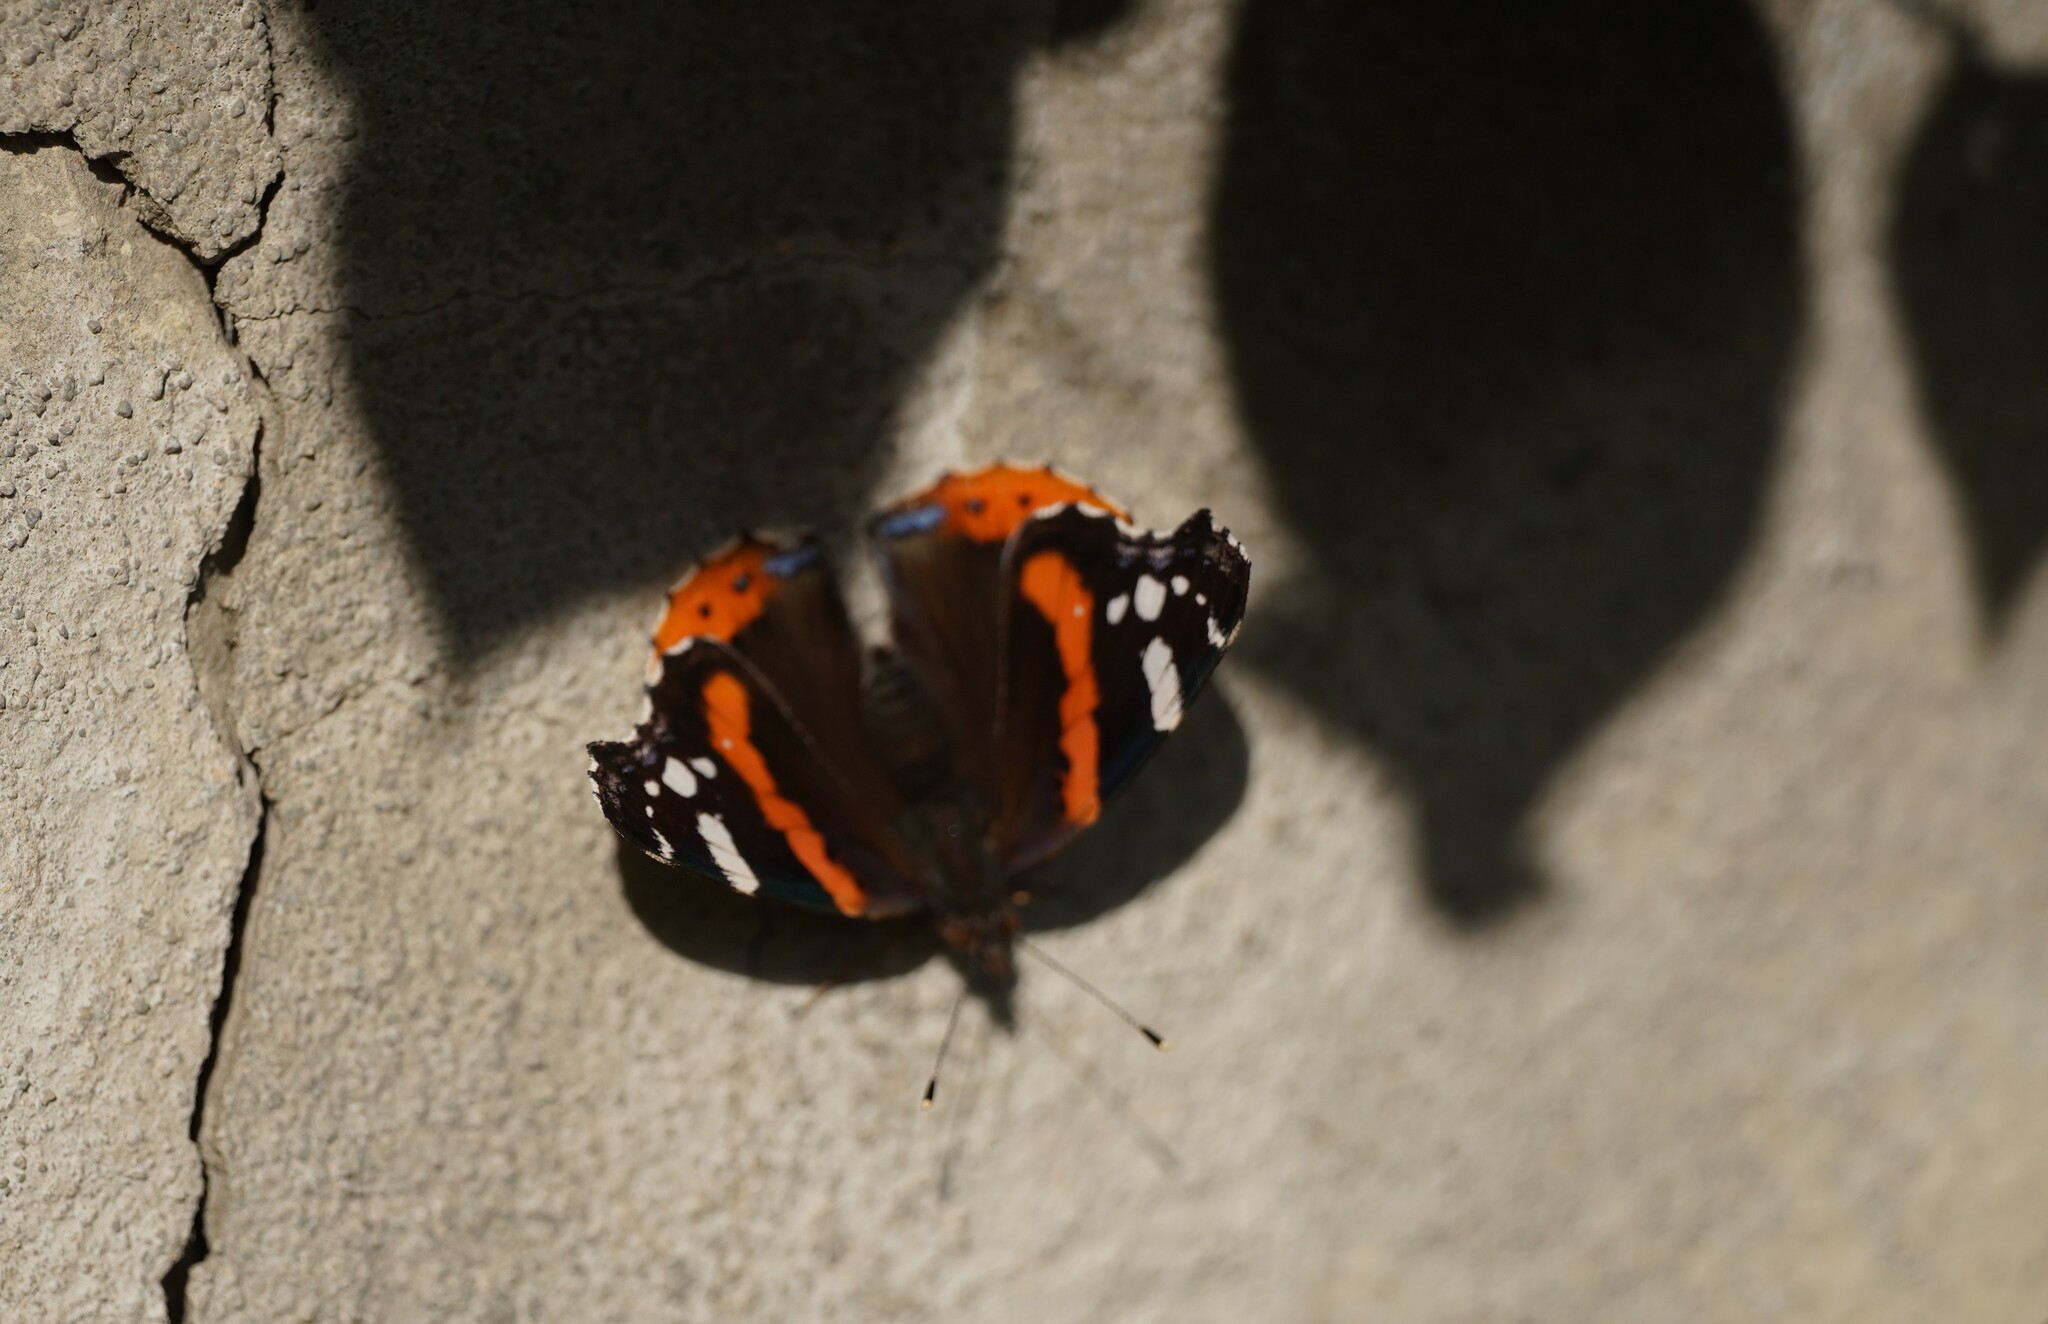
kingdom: Animalia
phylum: Arthropoda
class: Insecta
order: Lepidoptera
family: Nymphalidae
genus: Vanessa
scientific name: Vanessa atalanta
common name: Red admiral
